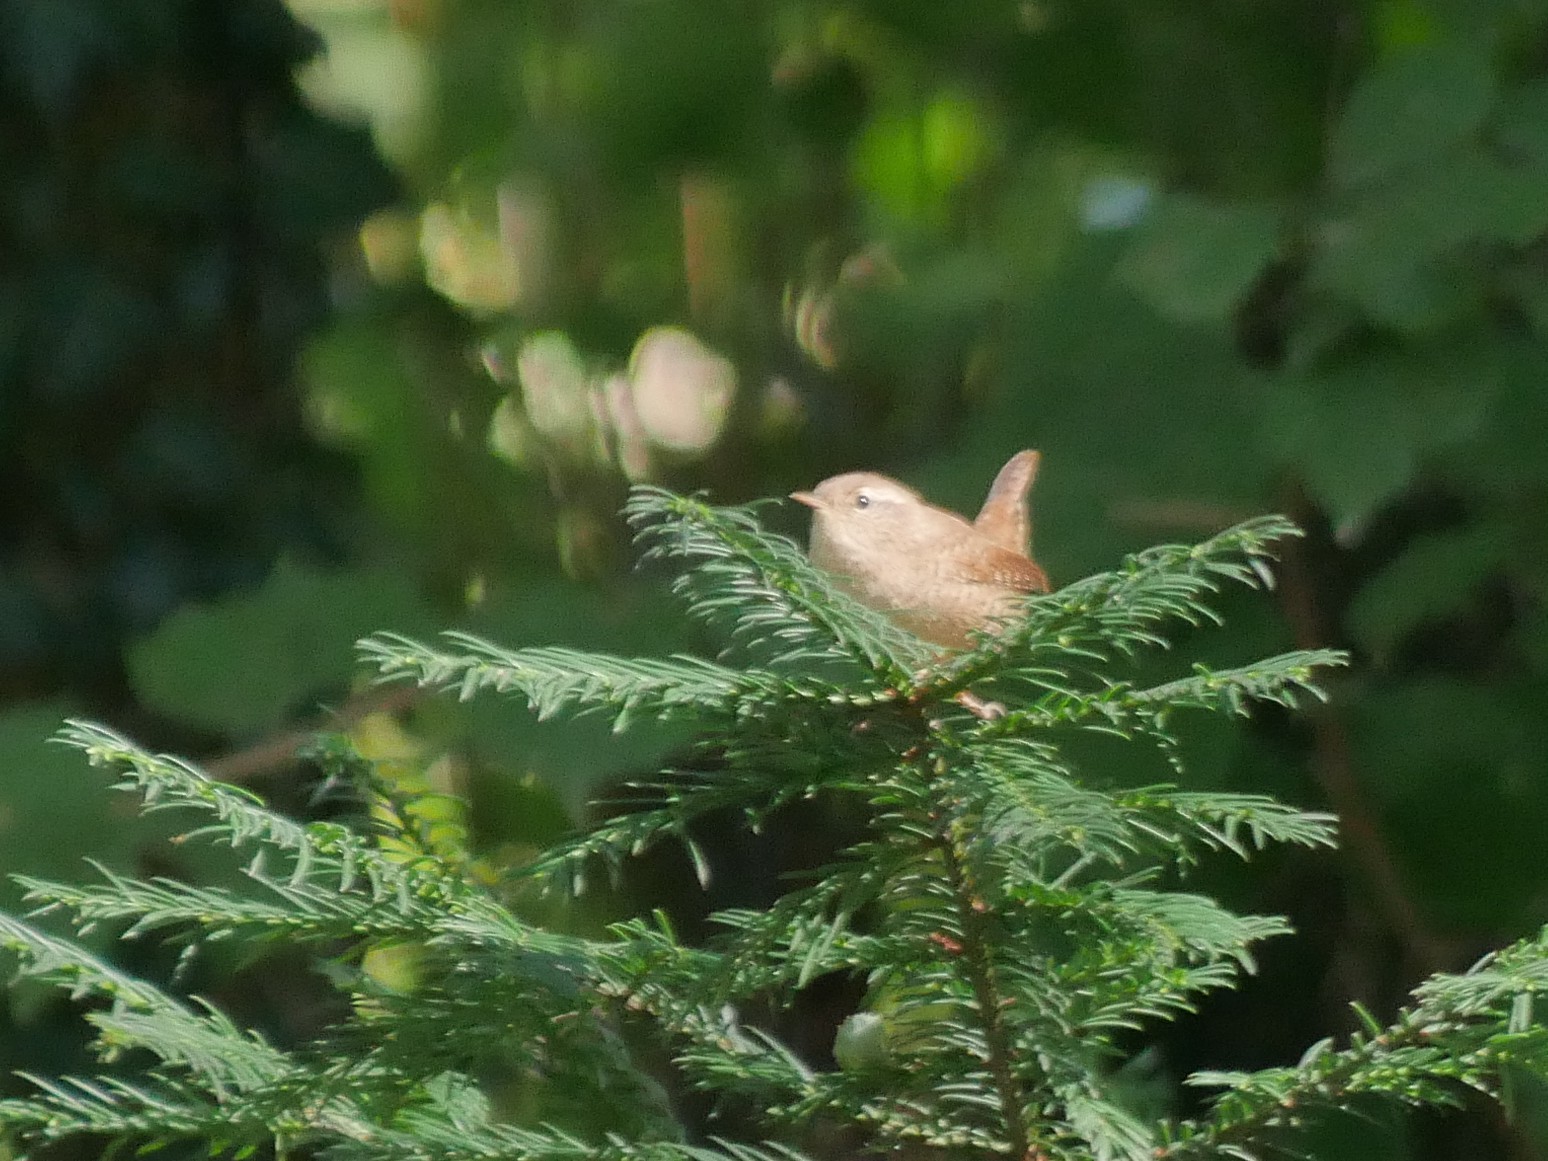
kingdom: Animalia
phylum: Chordata
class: Aves
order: Passeriformes
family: Troglodytidae
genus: Troglodytes
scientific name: Troglodytes troglodytes
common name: Eurasian wren
